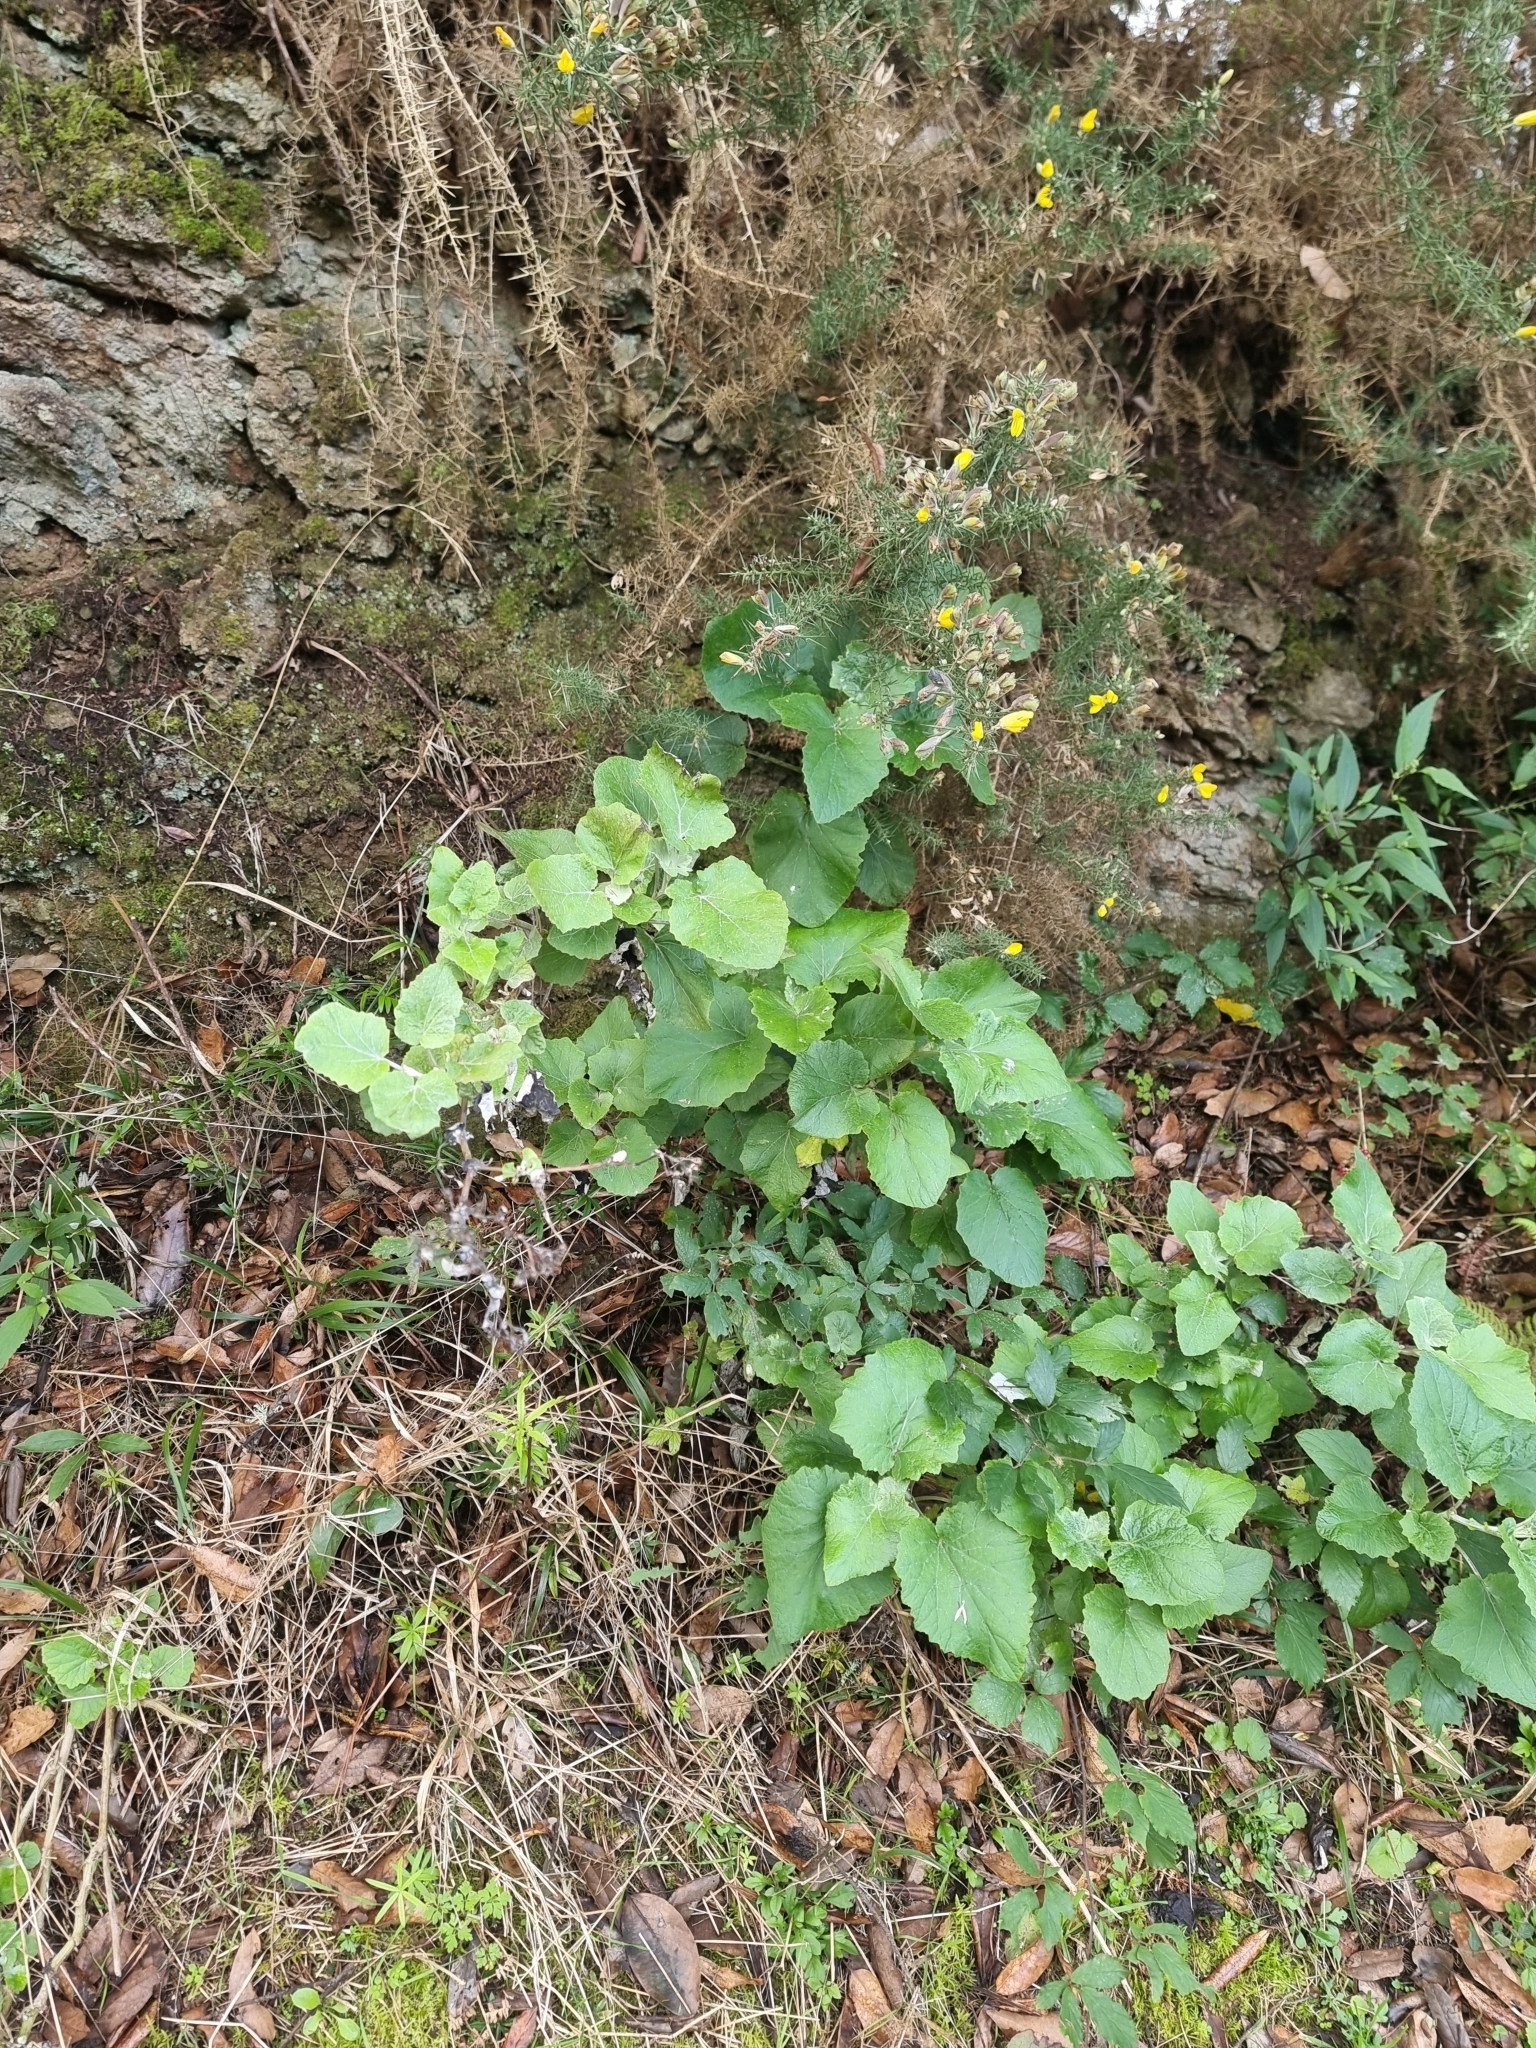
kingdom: Plantae
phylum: Tracheophyta
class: Magnoliopsida
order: Asterales
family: Asteraceae
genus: Pericallis
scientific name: Pericallis aurita
